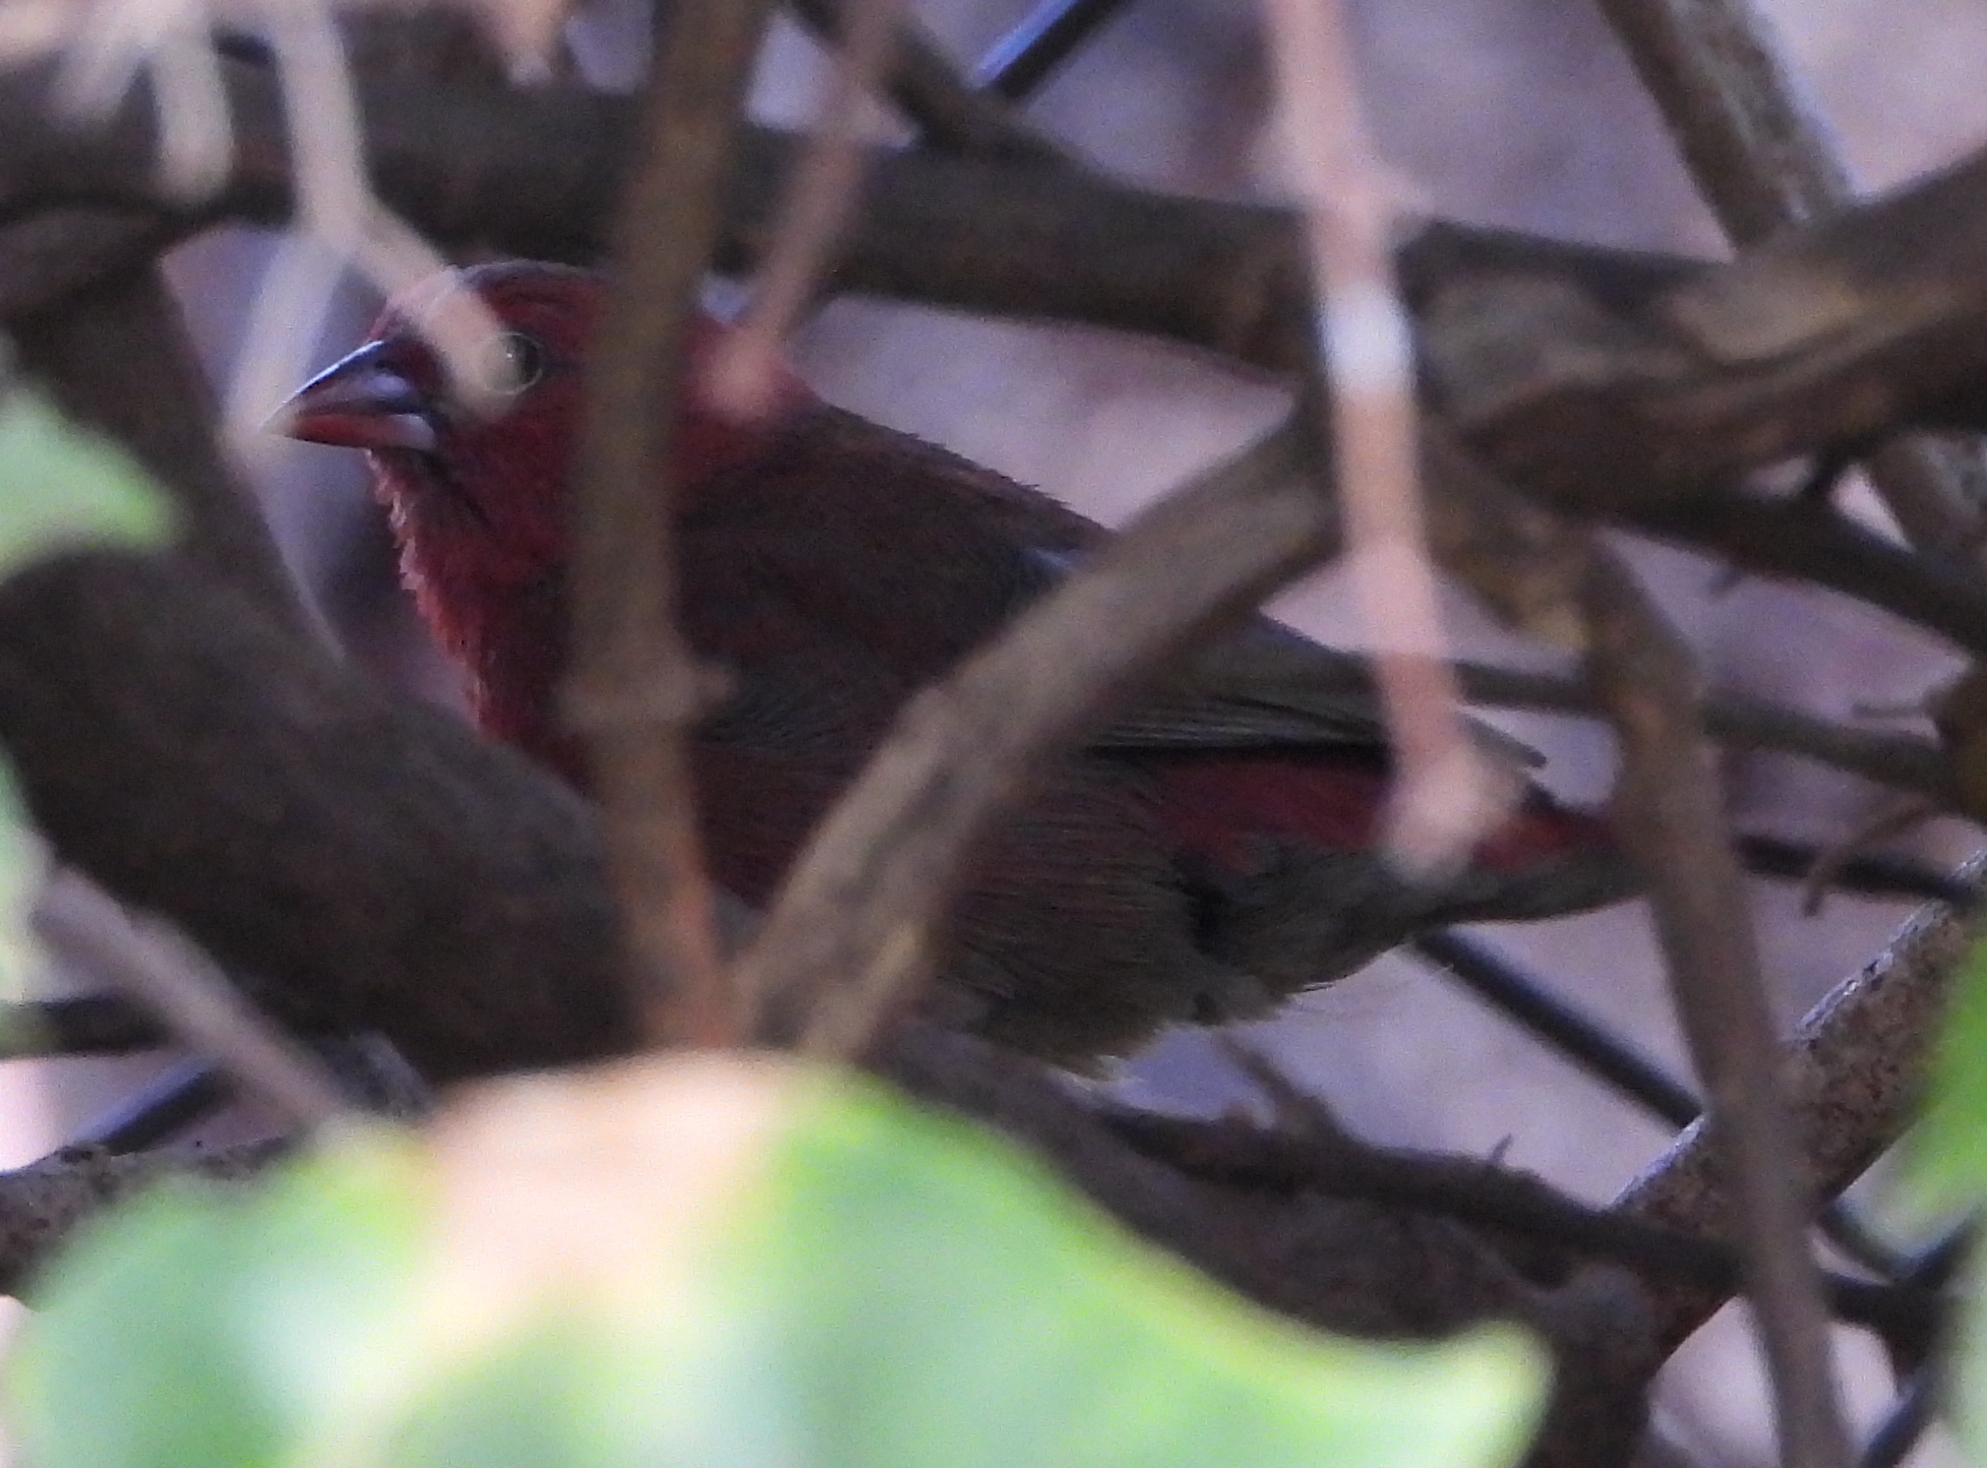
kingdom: Animalia
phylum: Chordata
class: Aves
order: Passeriformes
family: Estrildidae
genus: Lagonosticta
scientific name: Lagonosticta senegala
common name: Red-billed firefinch
